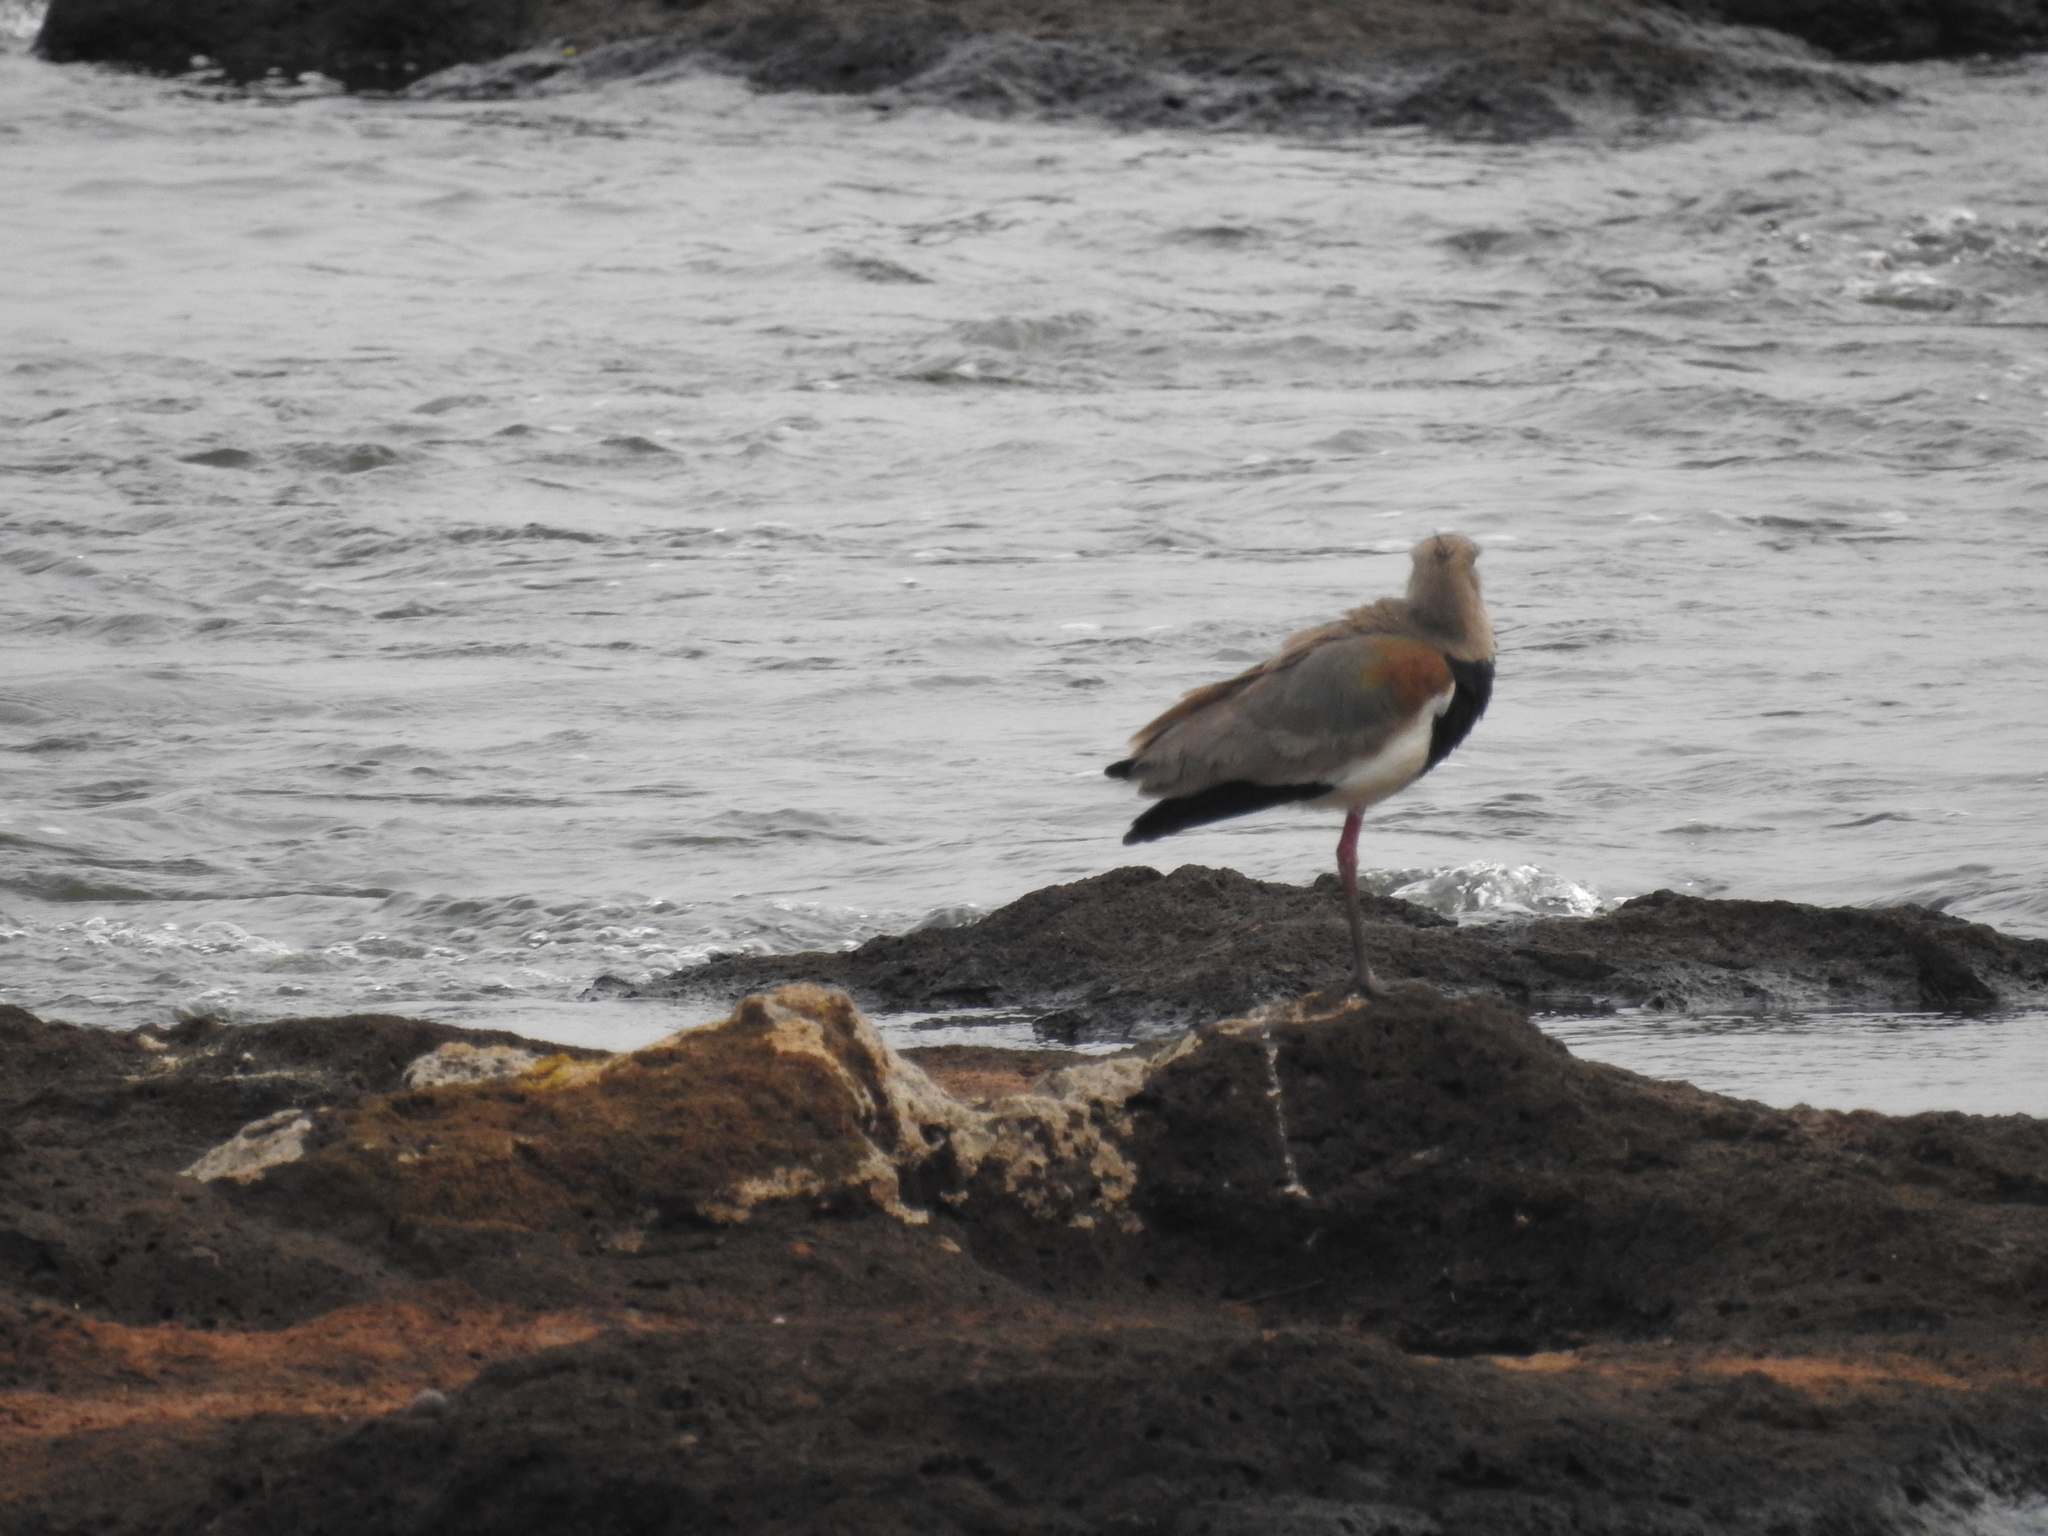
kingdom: Animalia
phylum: Chordata
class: Aves
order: Charadriiformes
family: Charadriidae
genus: Vanellus
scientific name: Vanellus chilensis
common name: Southern lapwing
